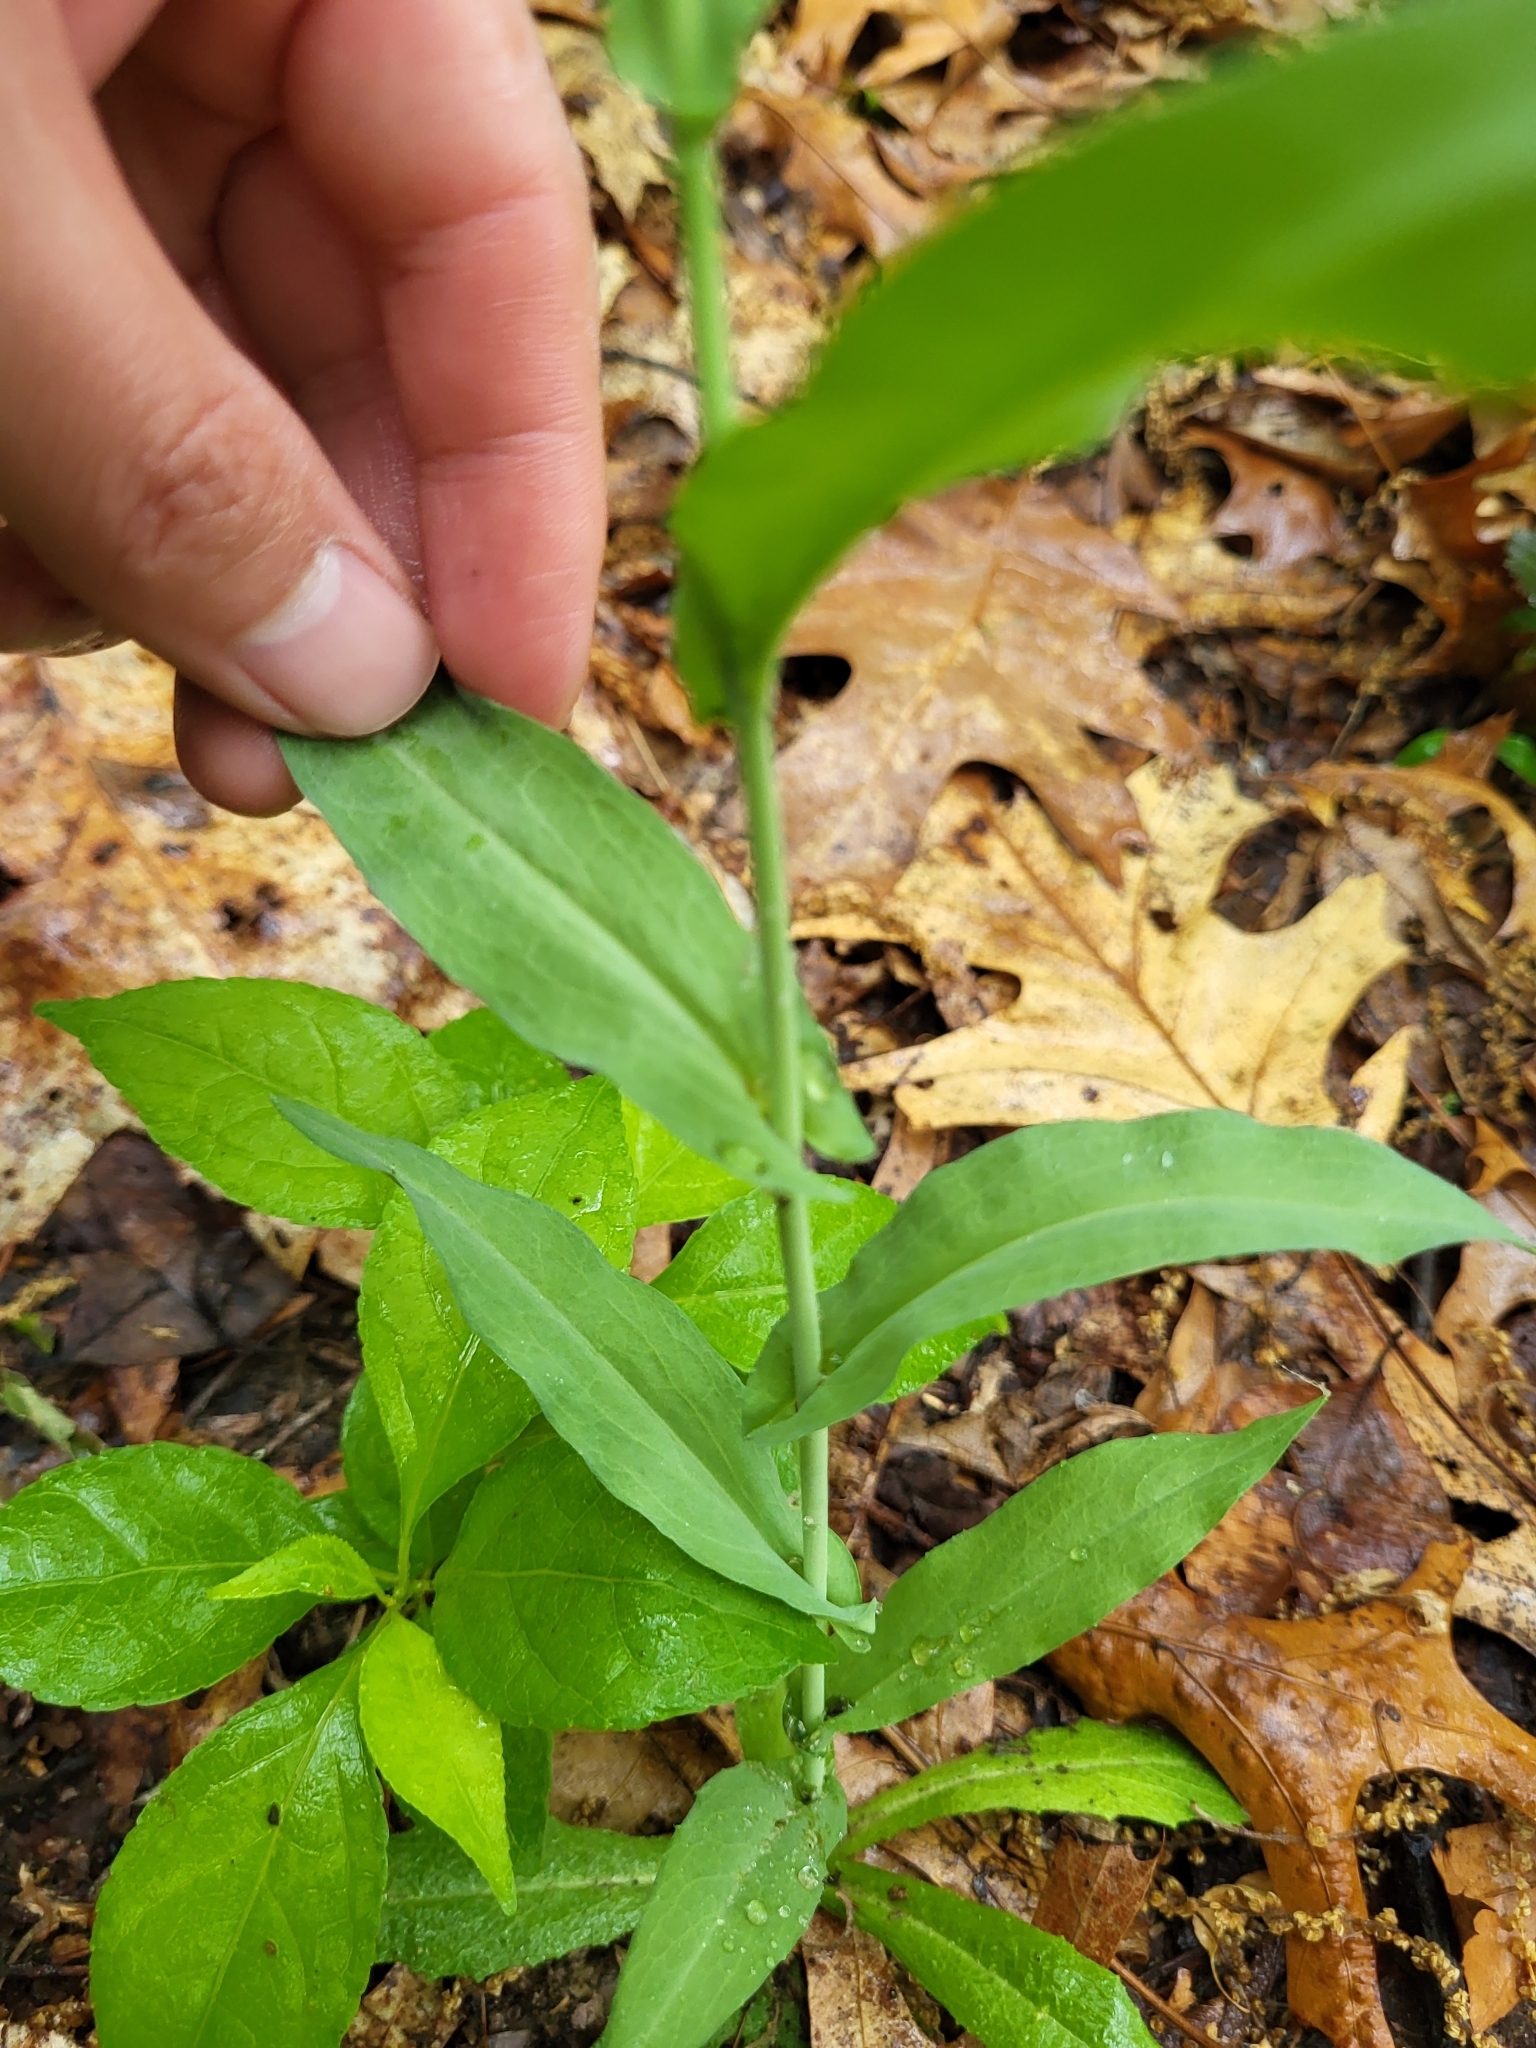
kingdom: Plantae
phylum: Tracheophyta
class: Magnoliopsida
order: Brassicales
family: Brassicaceae
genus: Borodinia
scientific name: Borodinia laevigata
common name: Smooth rockcress
